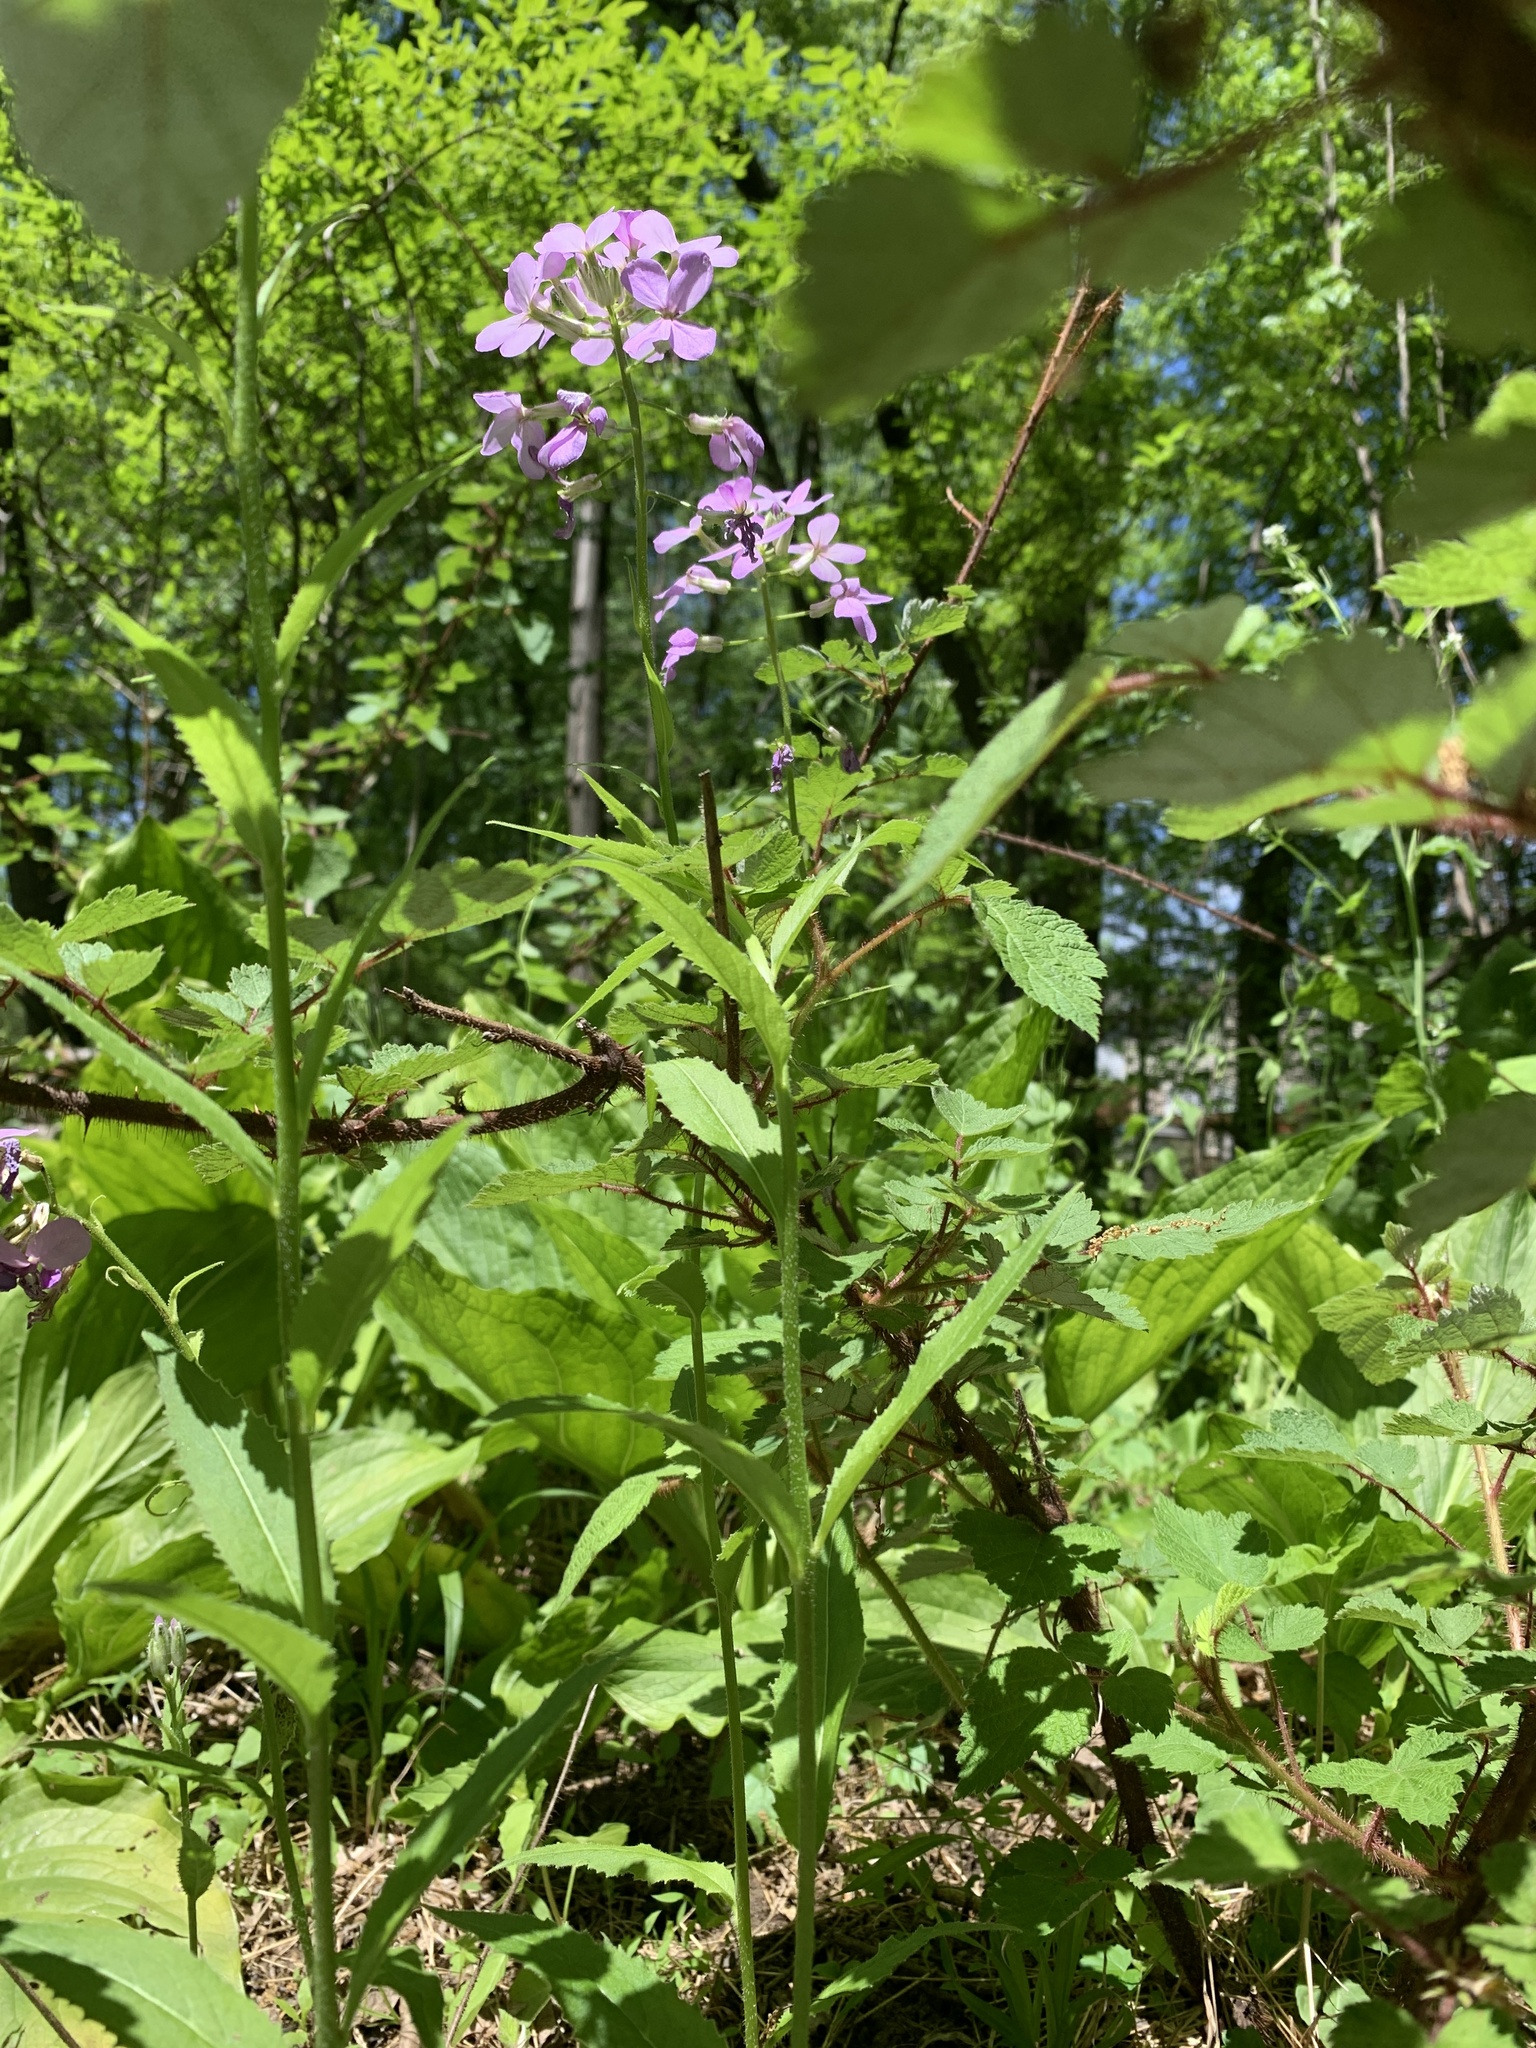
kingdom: Plantae
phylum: Tracheophyta
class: Magnoliopsida
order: Brassicales
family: Brassicaceae
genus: Hesperis
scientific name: Hesperis matronalis
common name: Dame's-violet
